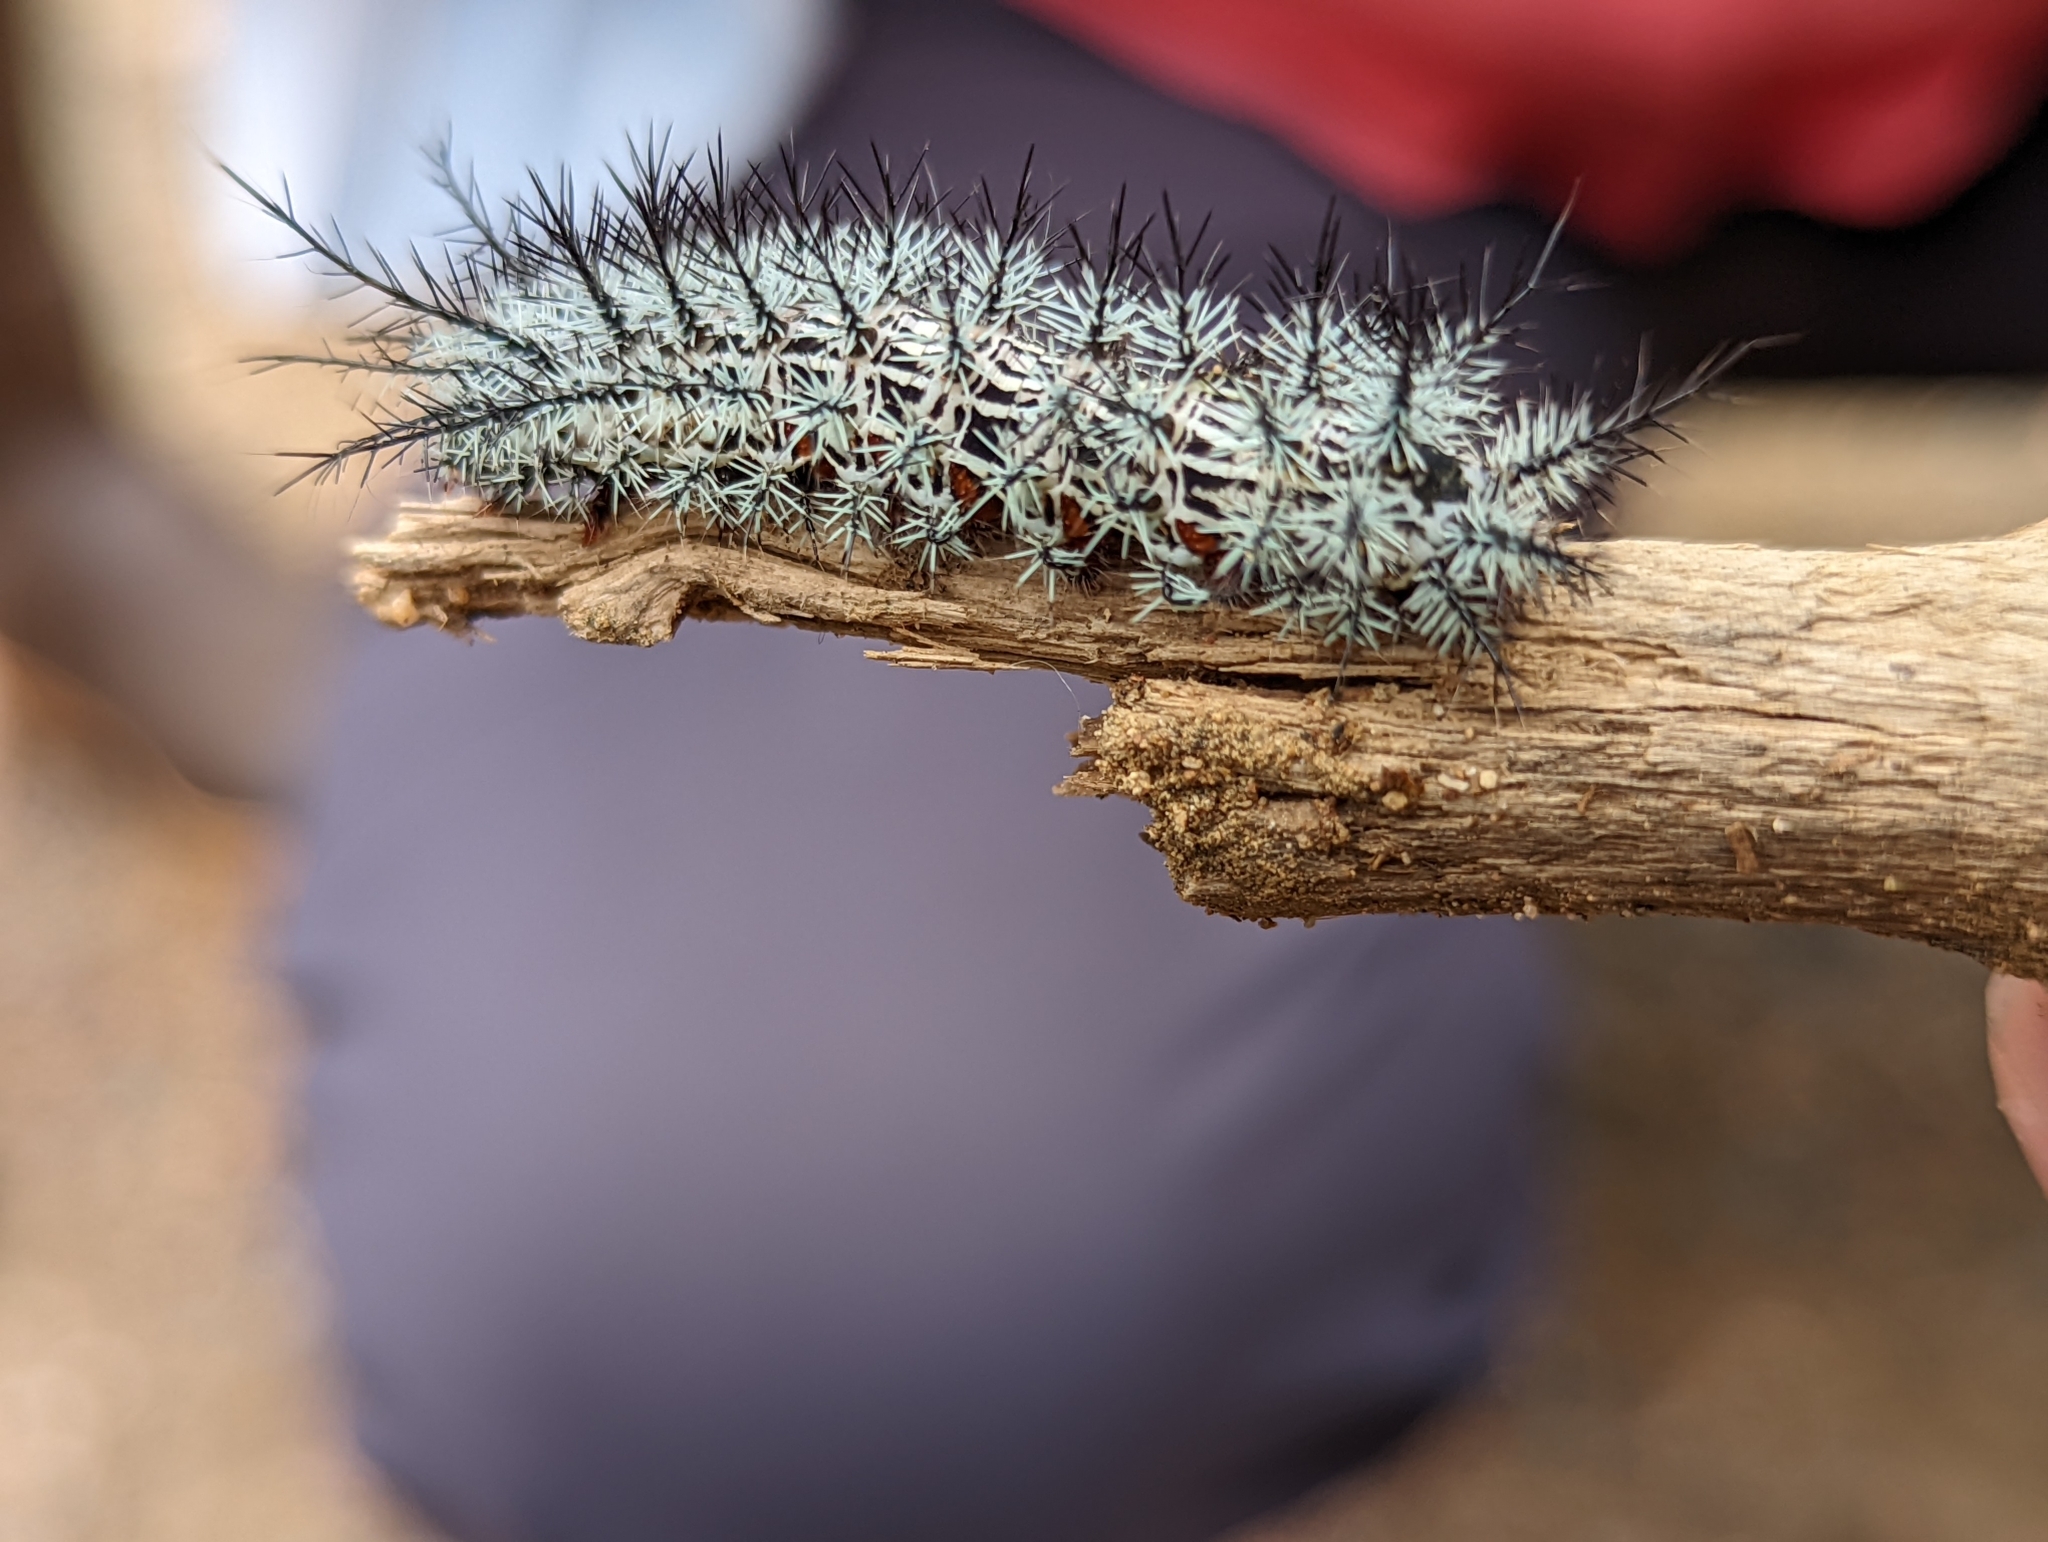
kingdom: Animalia
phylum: Arthropoda
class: Insecta
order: Lepidoptera
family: Saturniidae
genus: Automeris
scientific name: Automeris cecrops
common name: Cecrops eyed silkmoth
